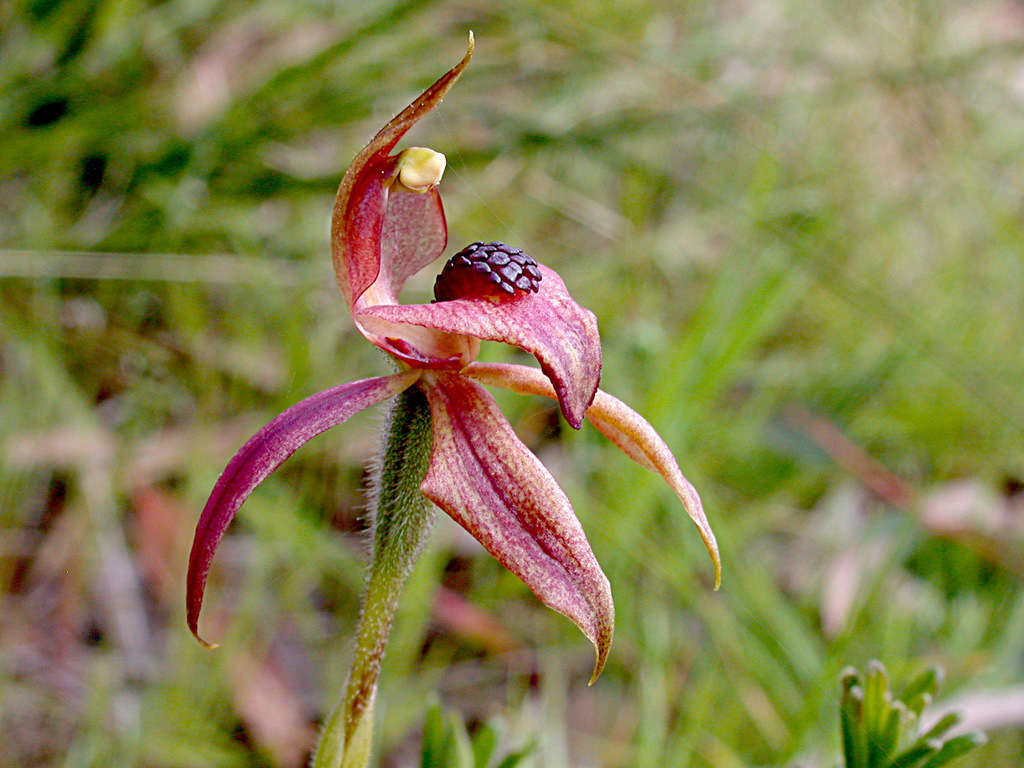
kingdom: Plantae
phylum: Tracheophyta
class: Liliopsida
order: Asparagales
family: Orchidaceae
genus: Caladenia
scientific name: Caladenia cardiochila
